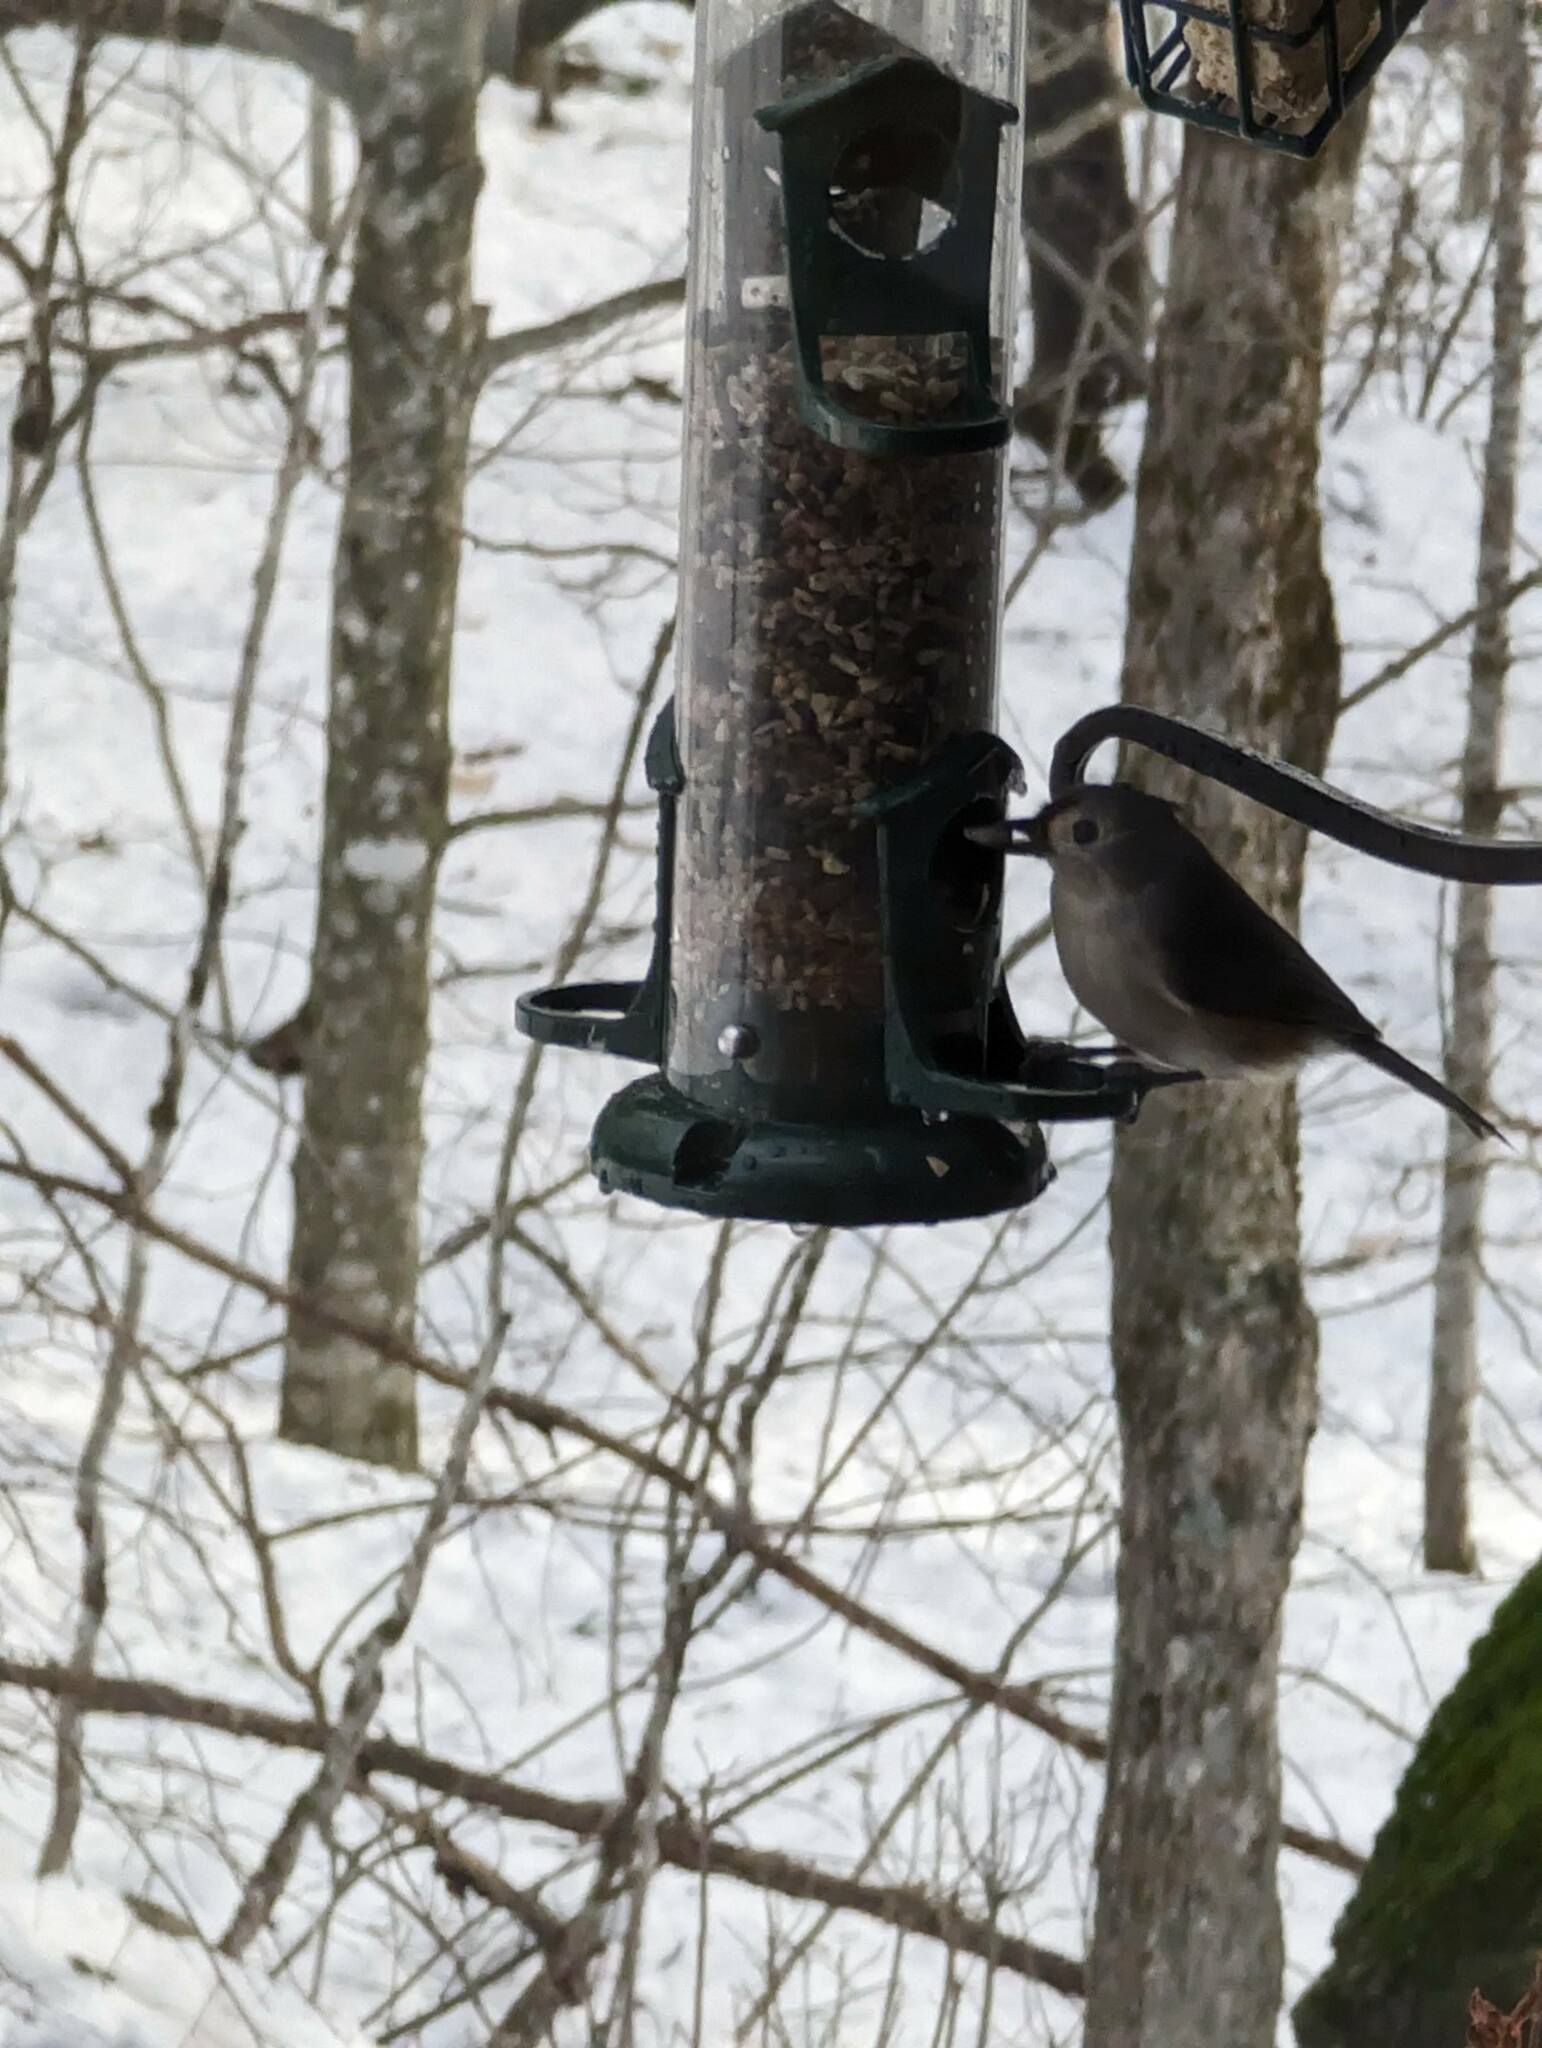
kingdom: Animalia
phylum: Chordata
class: Aves
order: Passeriformes
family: Paridae
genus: Baeolophus
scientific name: Baeolophus bicolor
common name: Tufted titmouse
